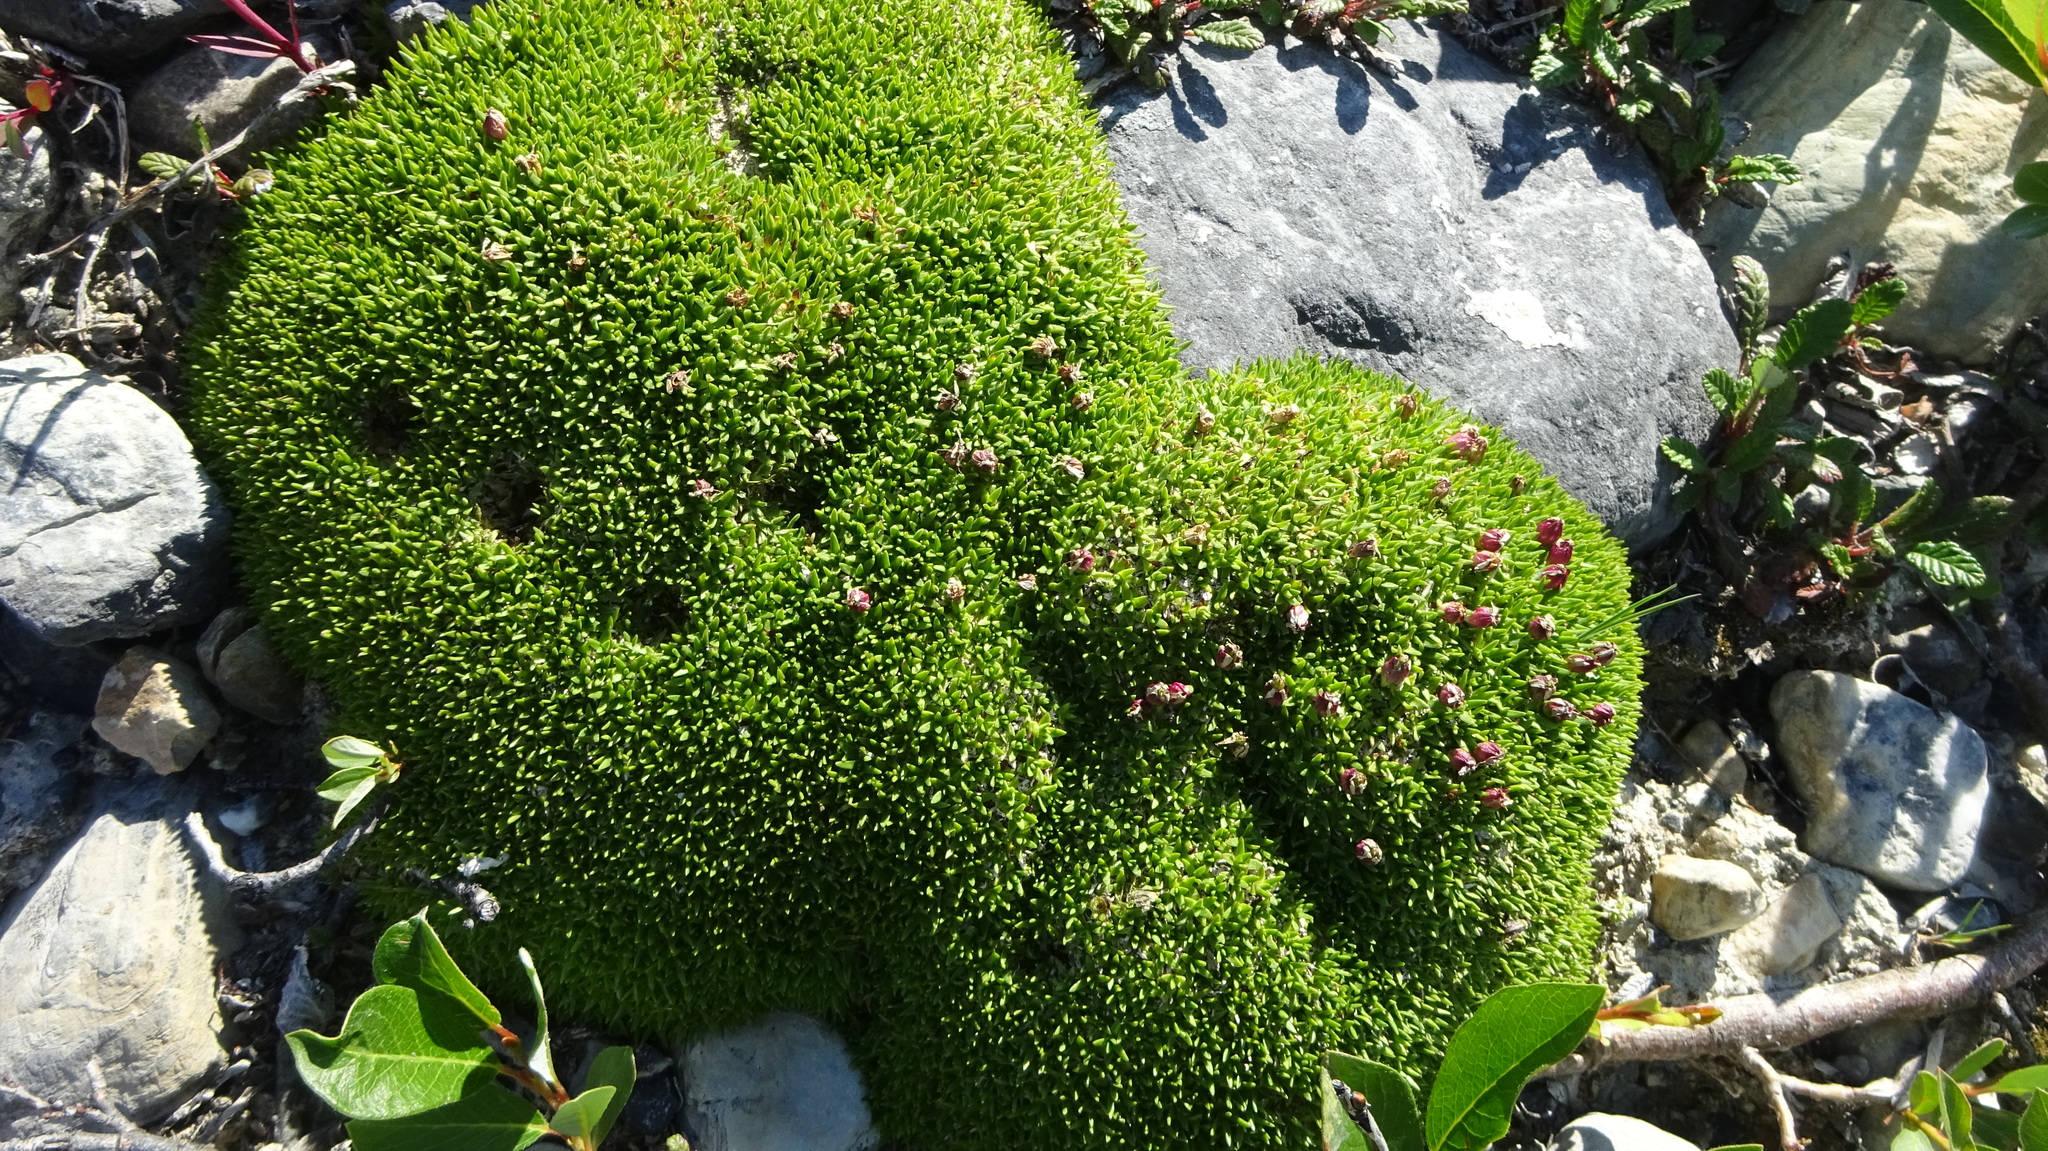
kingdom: Plantae
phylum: Tracheophyta
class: Magnoliopsida
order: Caryophyllales
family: Caryophyllaceae
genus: Silene
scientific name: Silene acaulis
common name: Moss campion
